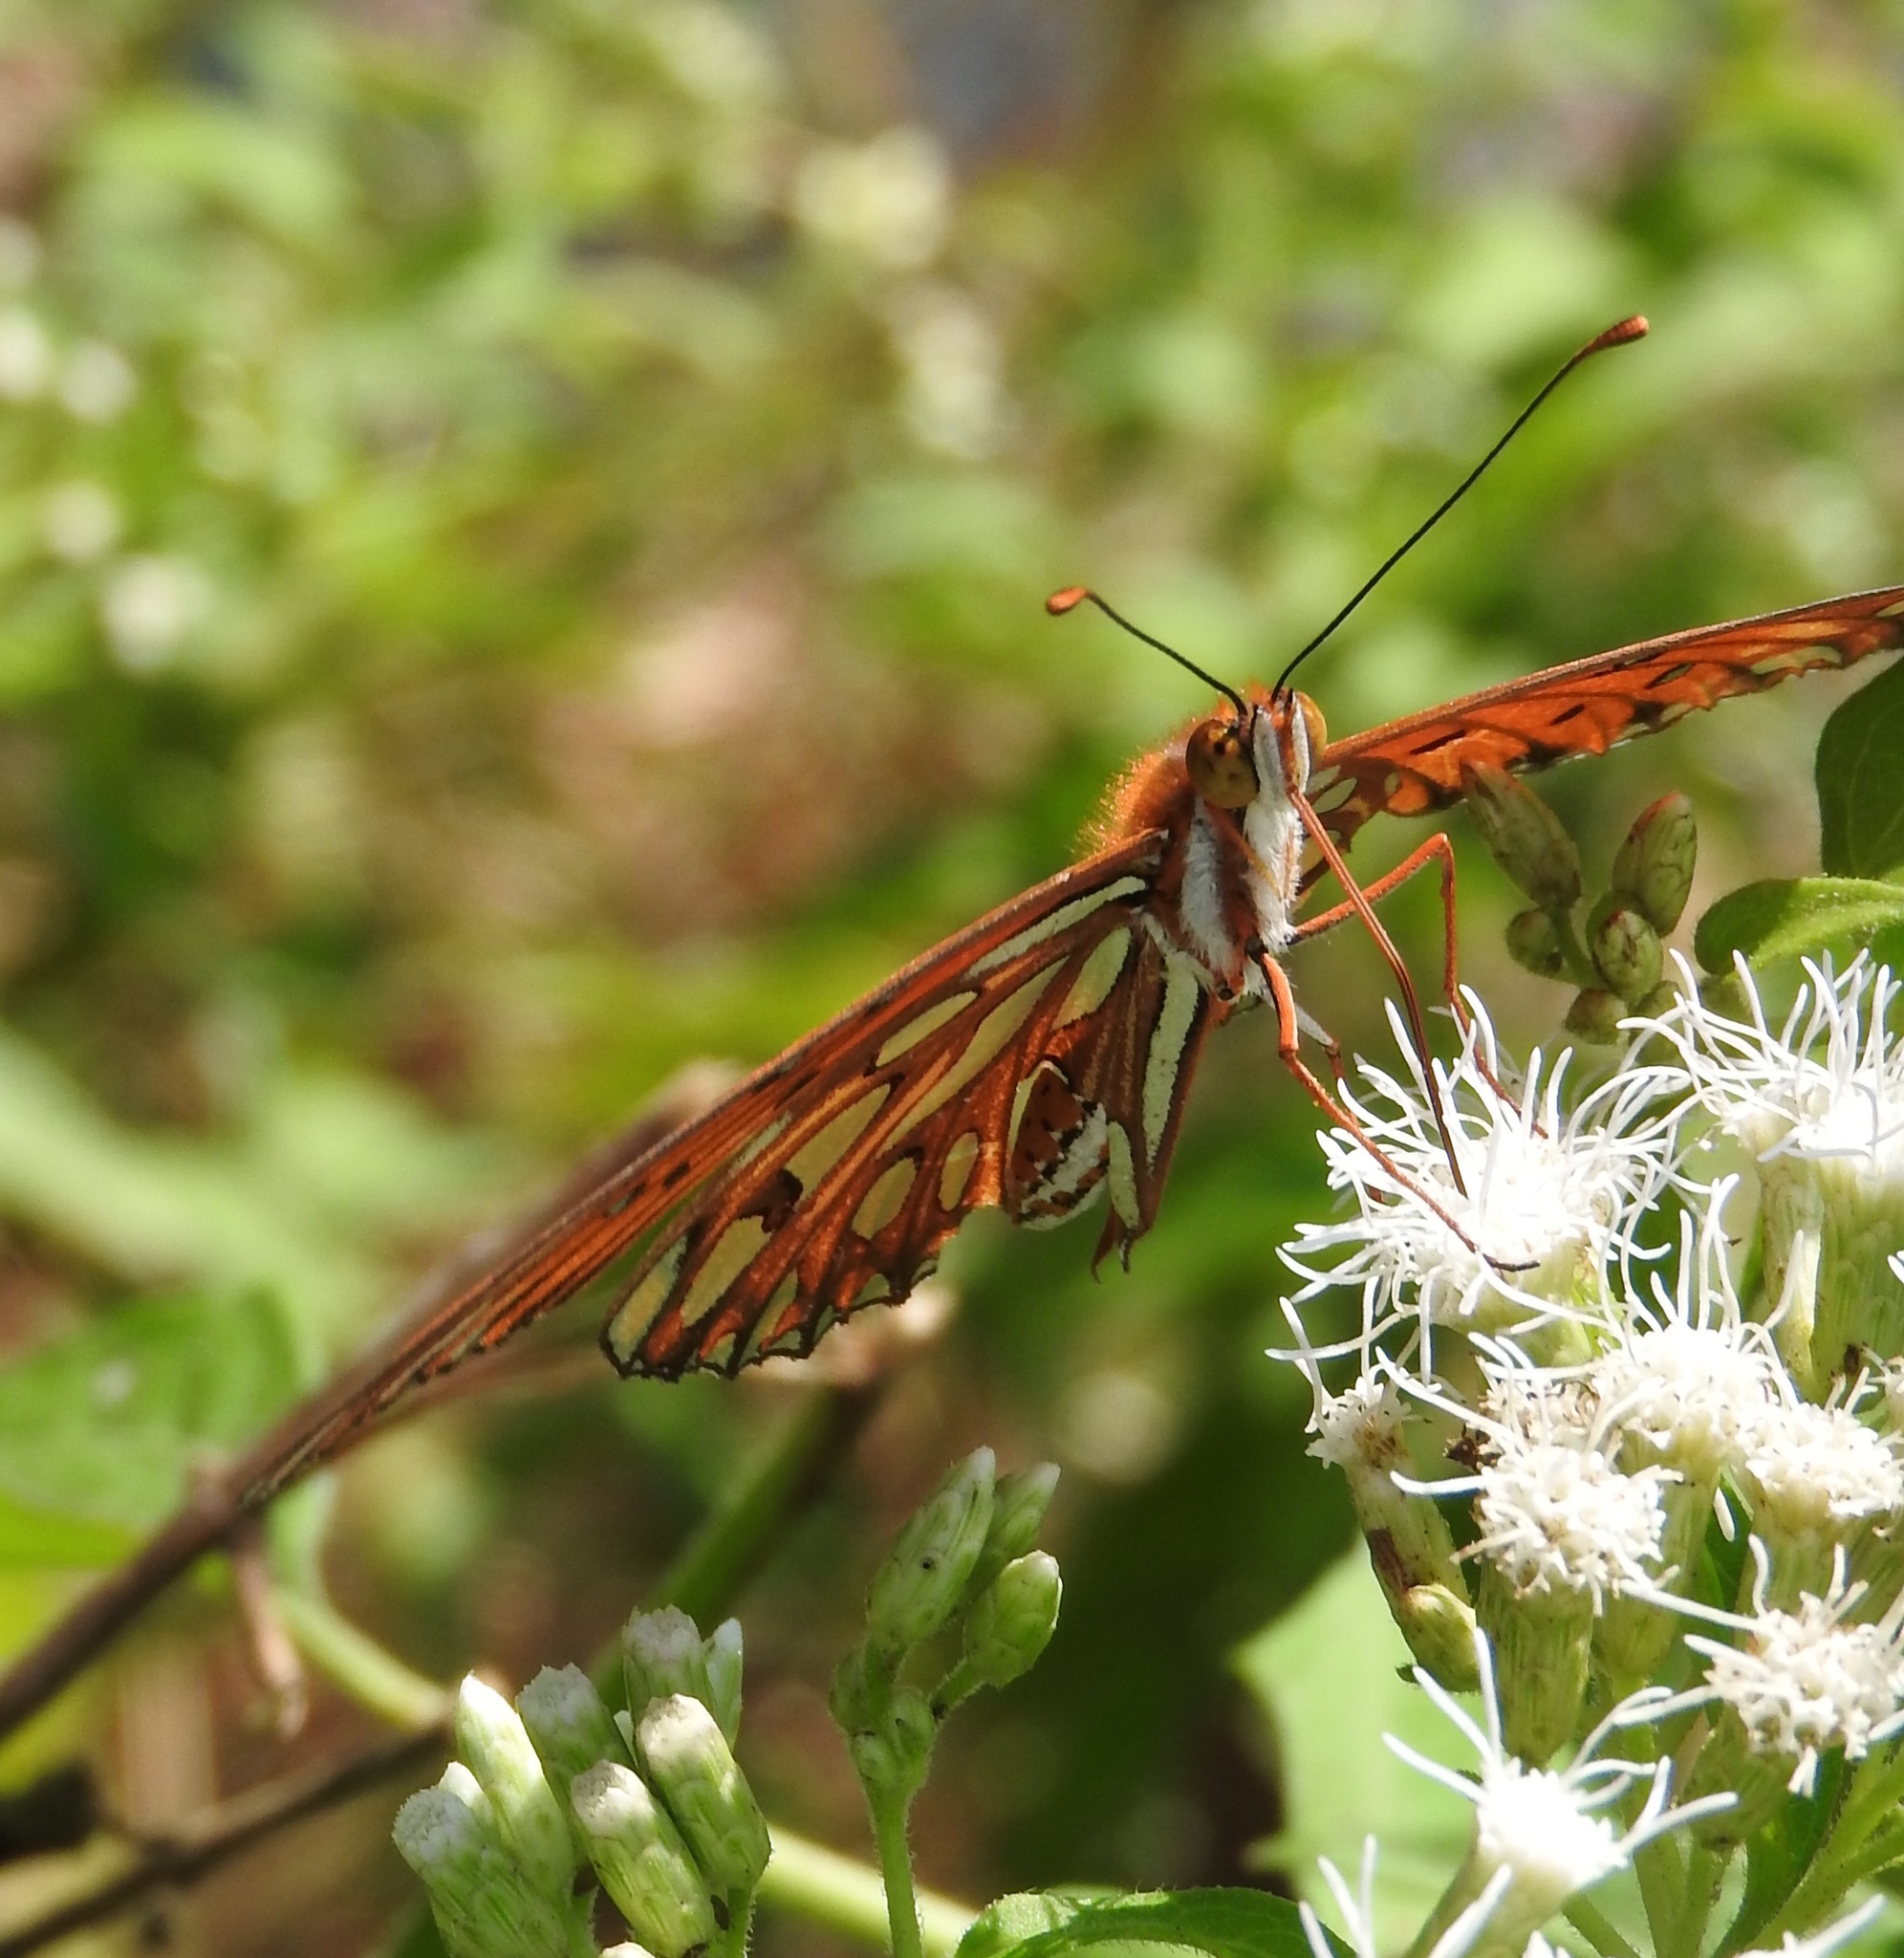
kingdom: Animalia
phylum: Arthropoda
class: Insecta
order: Lepidoptera
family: Nymphalidae
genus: Dione
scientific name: Dione vanillae
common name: Gulf fritillary
